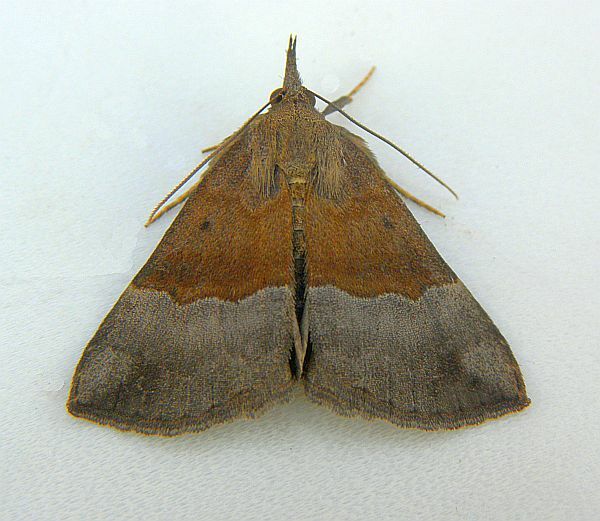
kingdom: Animalia
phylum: Arthropoda
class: Insecta
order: Lepidoptera
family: Erebidae
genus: Hypena
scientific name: Hypena madefactalis
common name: Gray-edged snout
